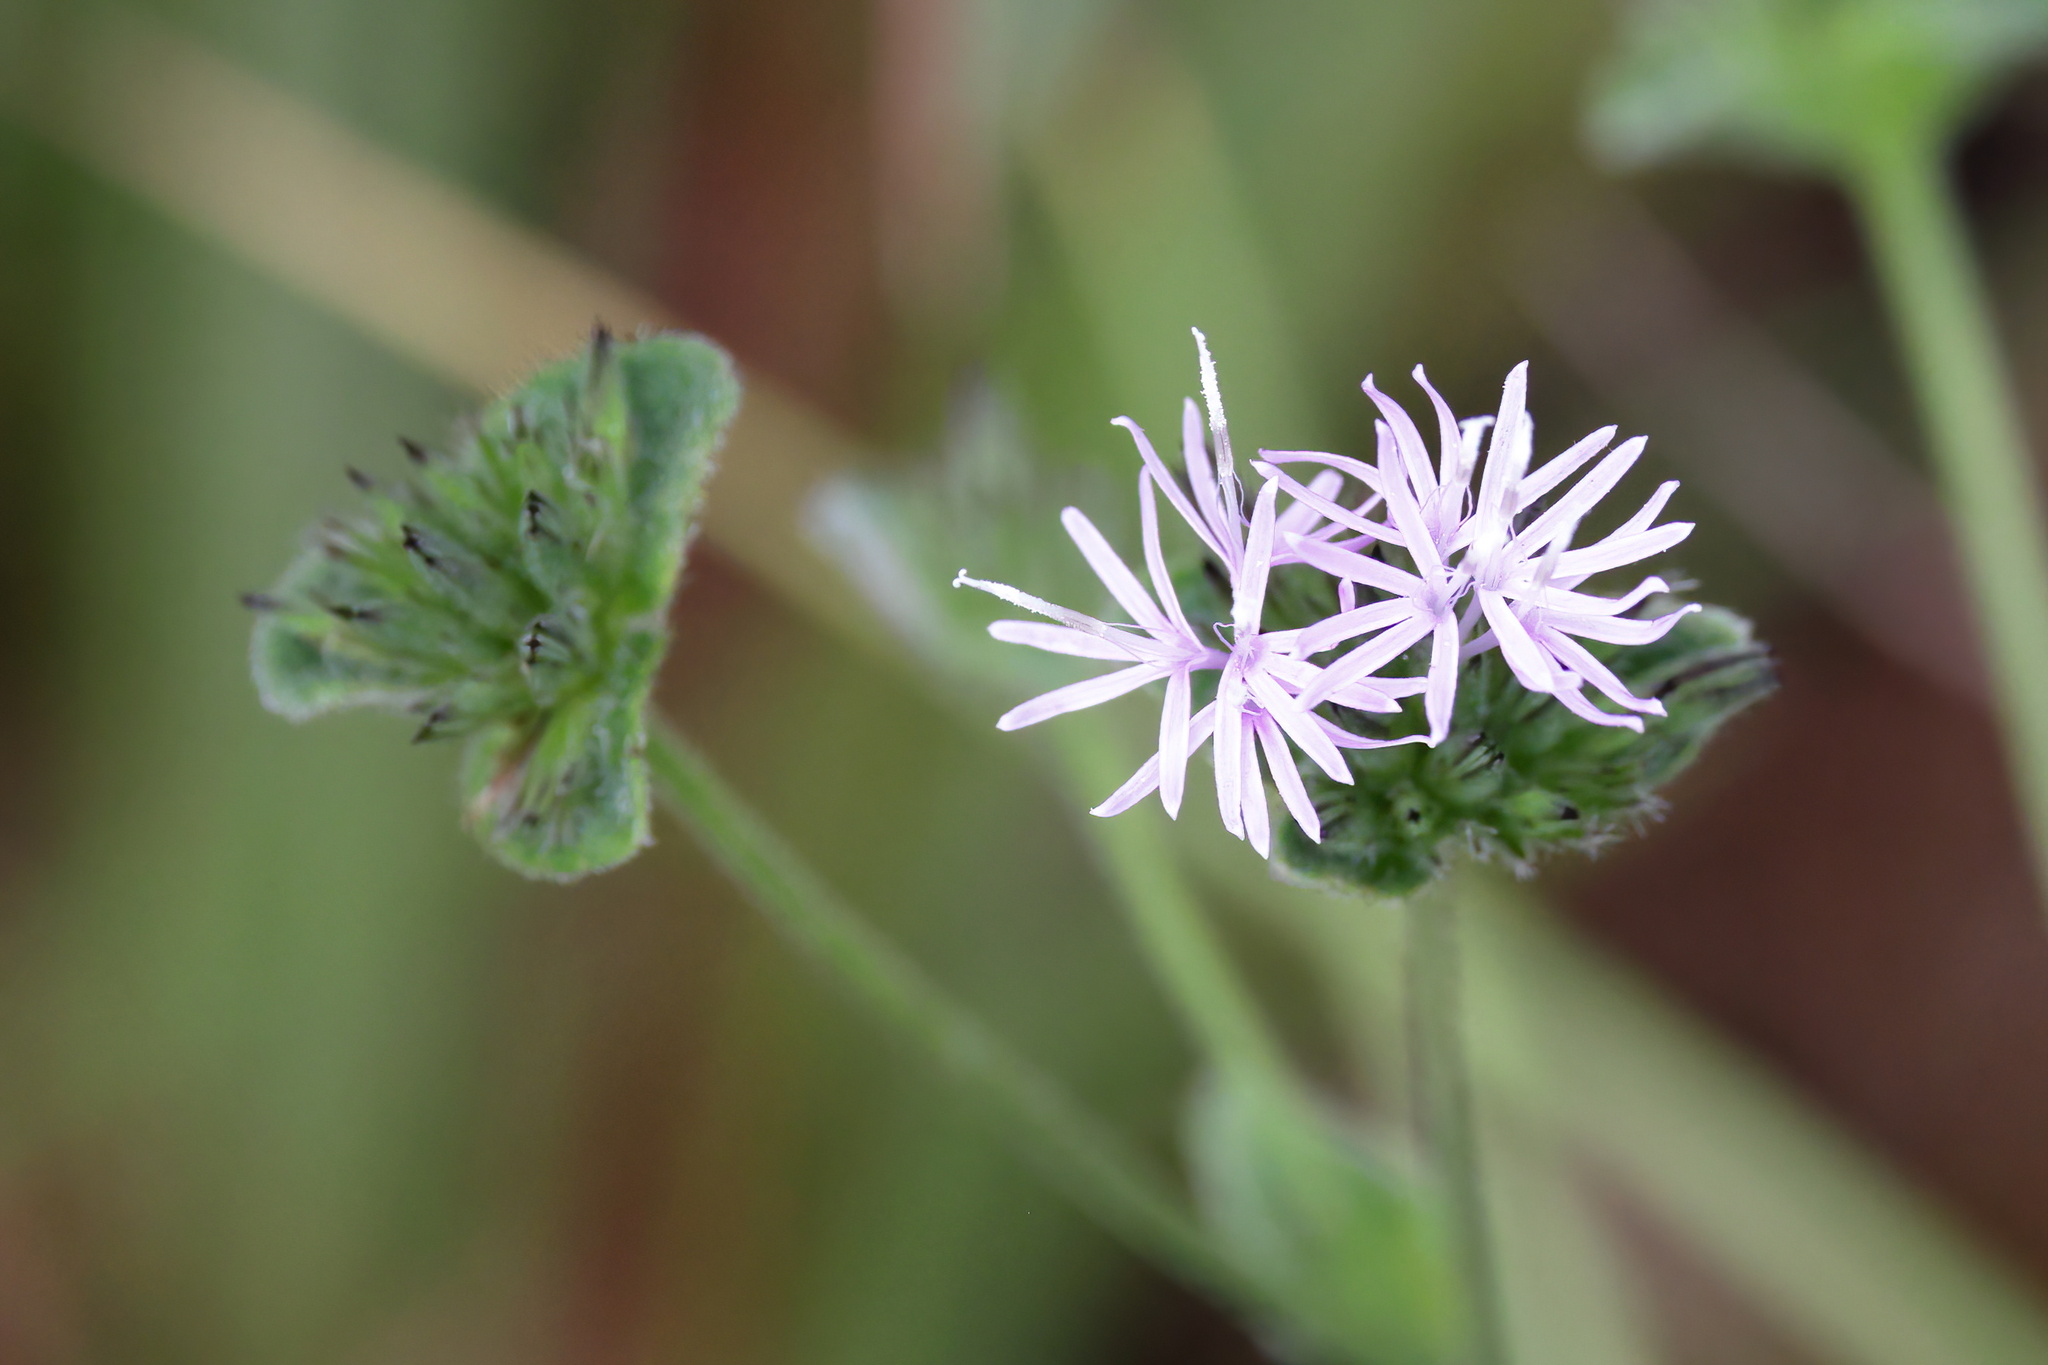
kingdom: Plantae
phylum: Tracheophyta
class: Magnoliopsida
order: Asterales
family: Asteraceae
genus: Elephantopus
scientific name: Elephantopus tomentosus
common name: Tobacco-weed
